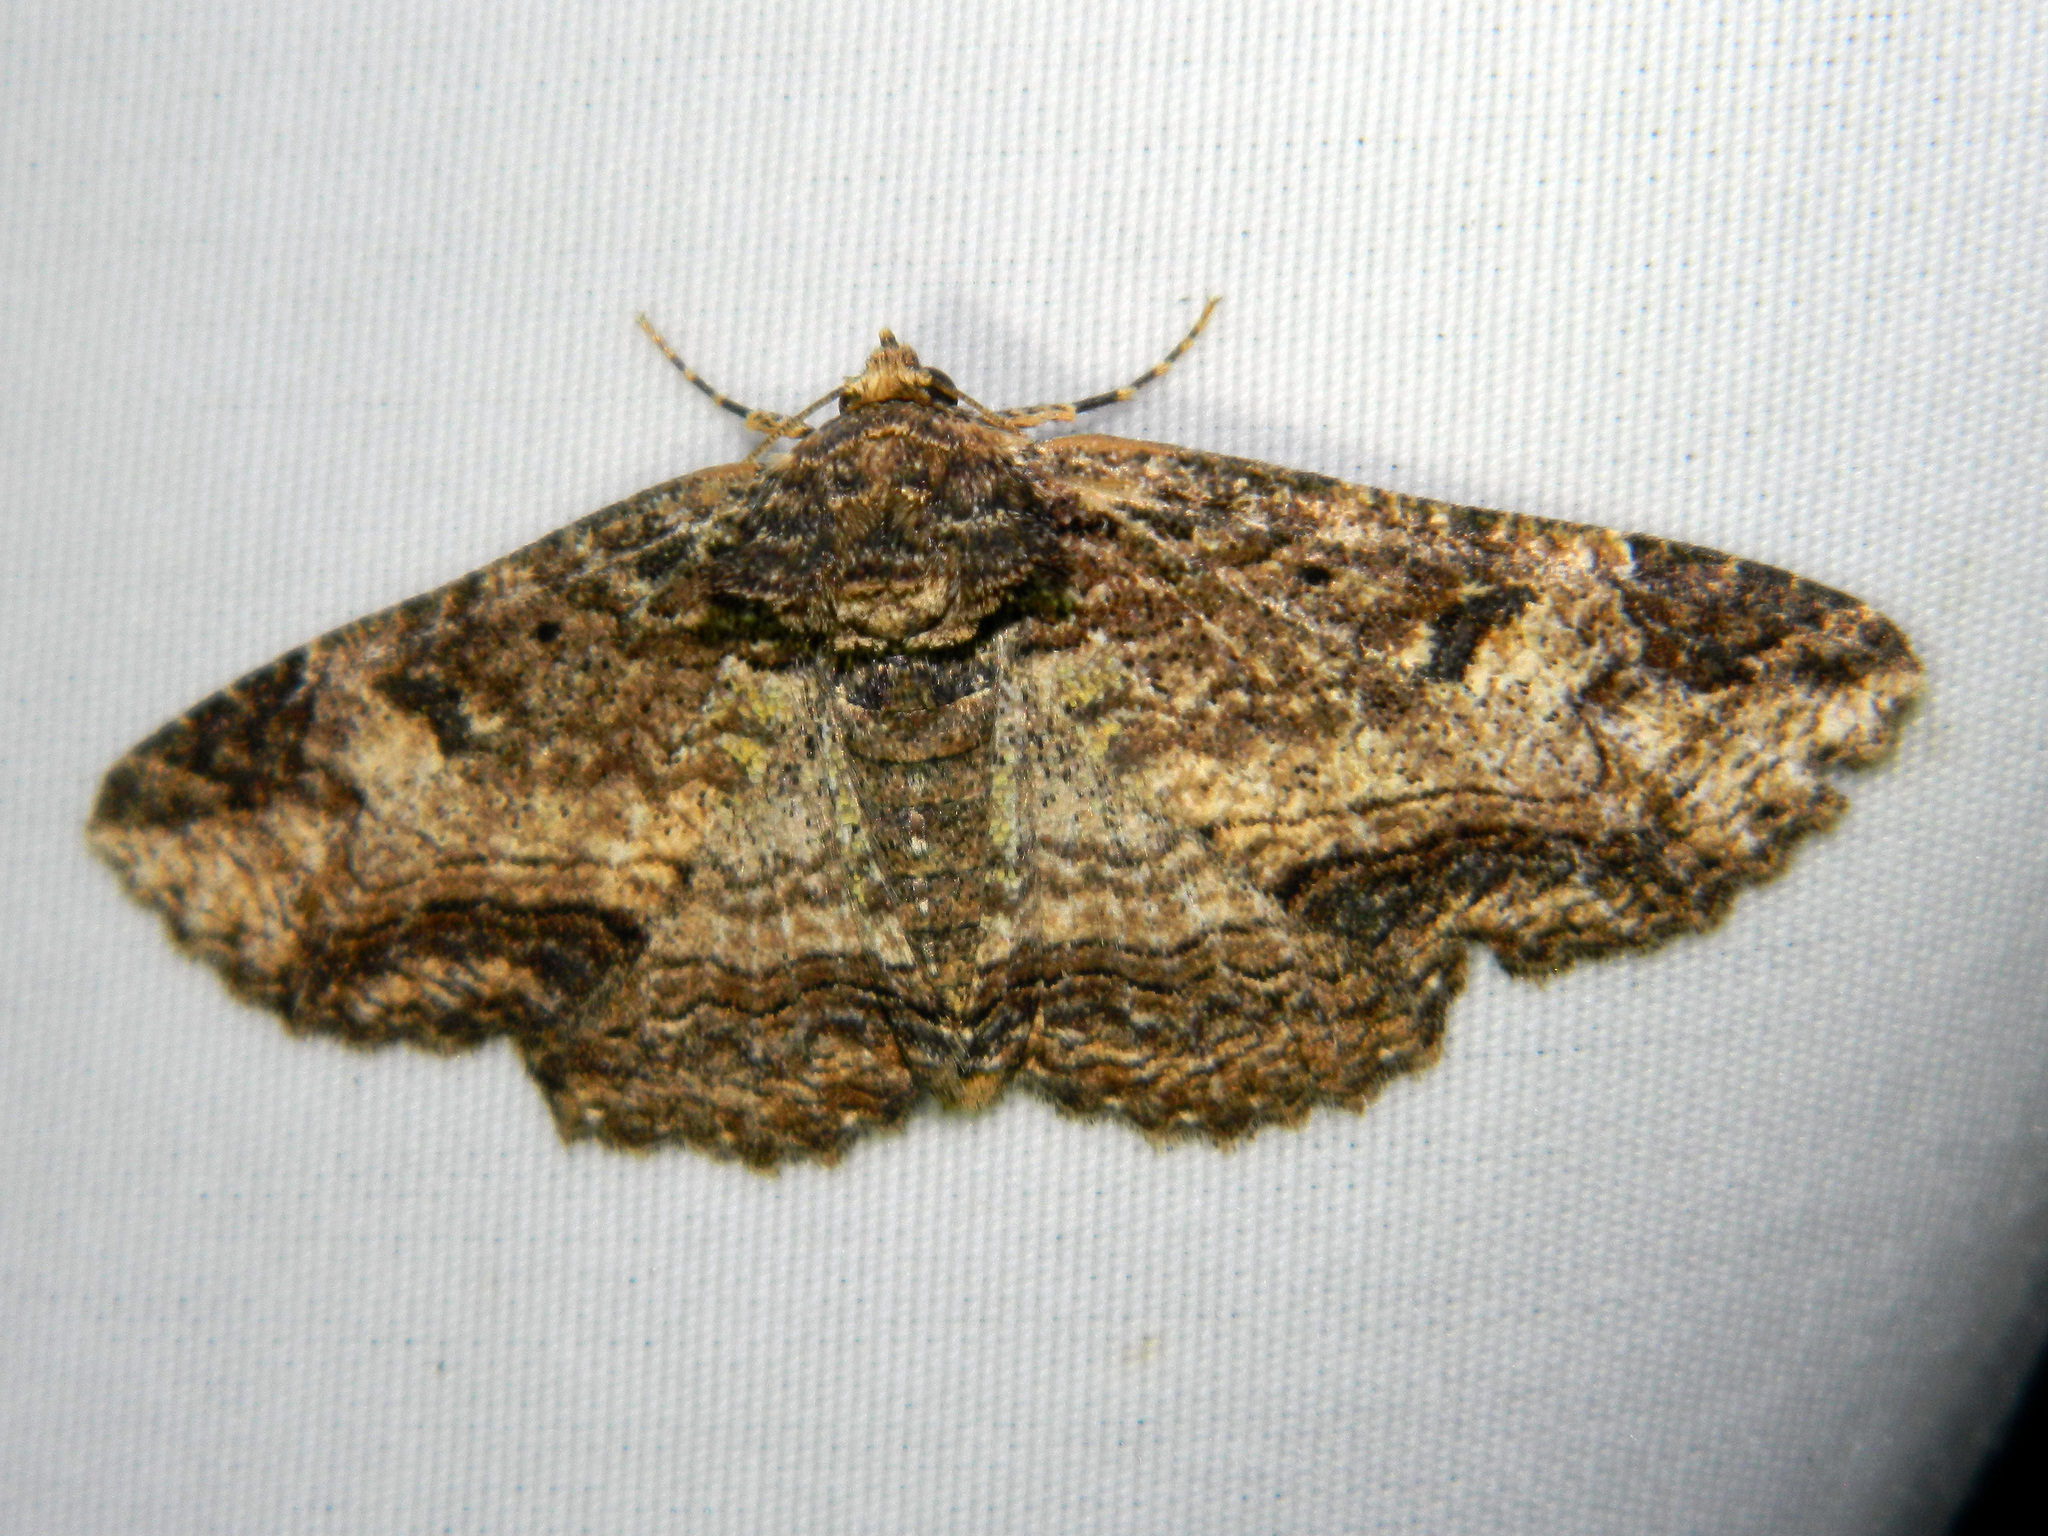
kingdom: Animalia
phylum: Arthropoda
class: Insecta
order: Lepidoptera
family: Erebidae
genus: Zale
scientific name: Zale minerea
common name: Colorful zale moth
